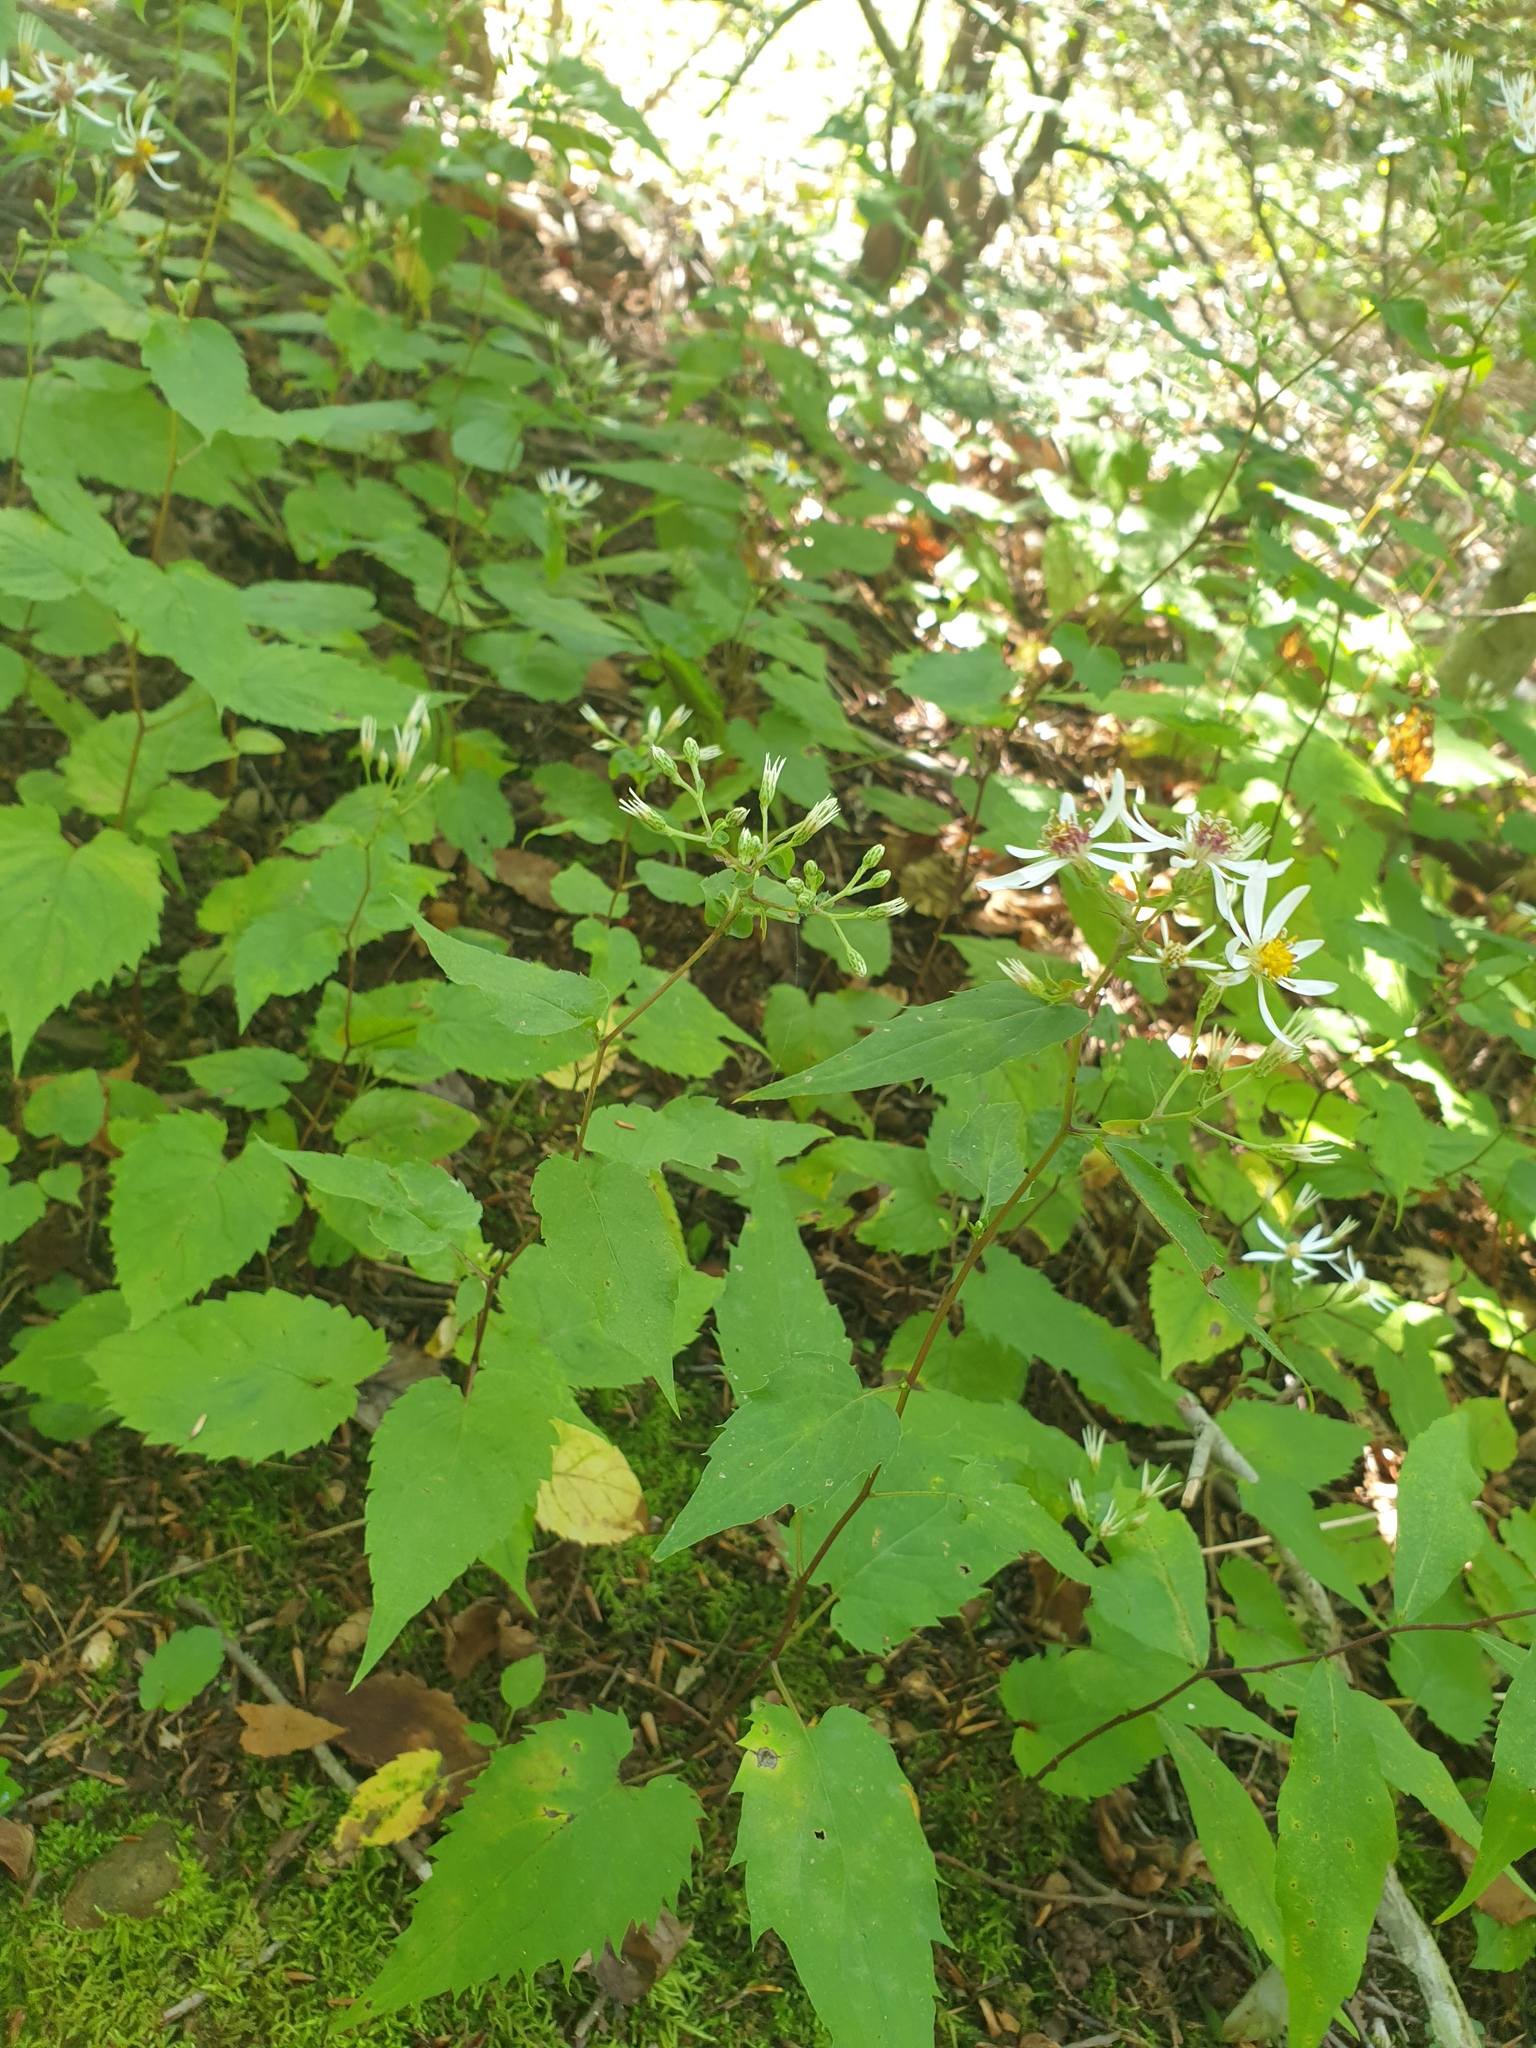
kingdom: Plantae
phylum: Tracheophyta
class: Magnoliopsida
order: Asterales
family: Asteraceae
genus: Eurybia
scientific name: Eurybia divaricata
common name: White wood aster
